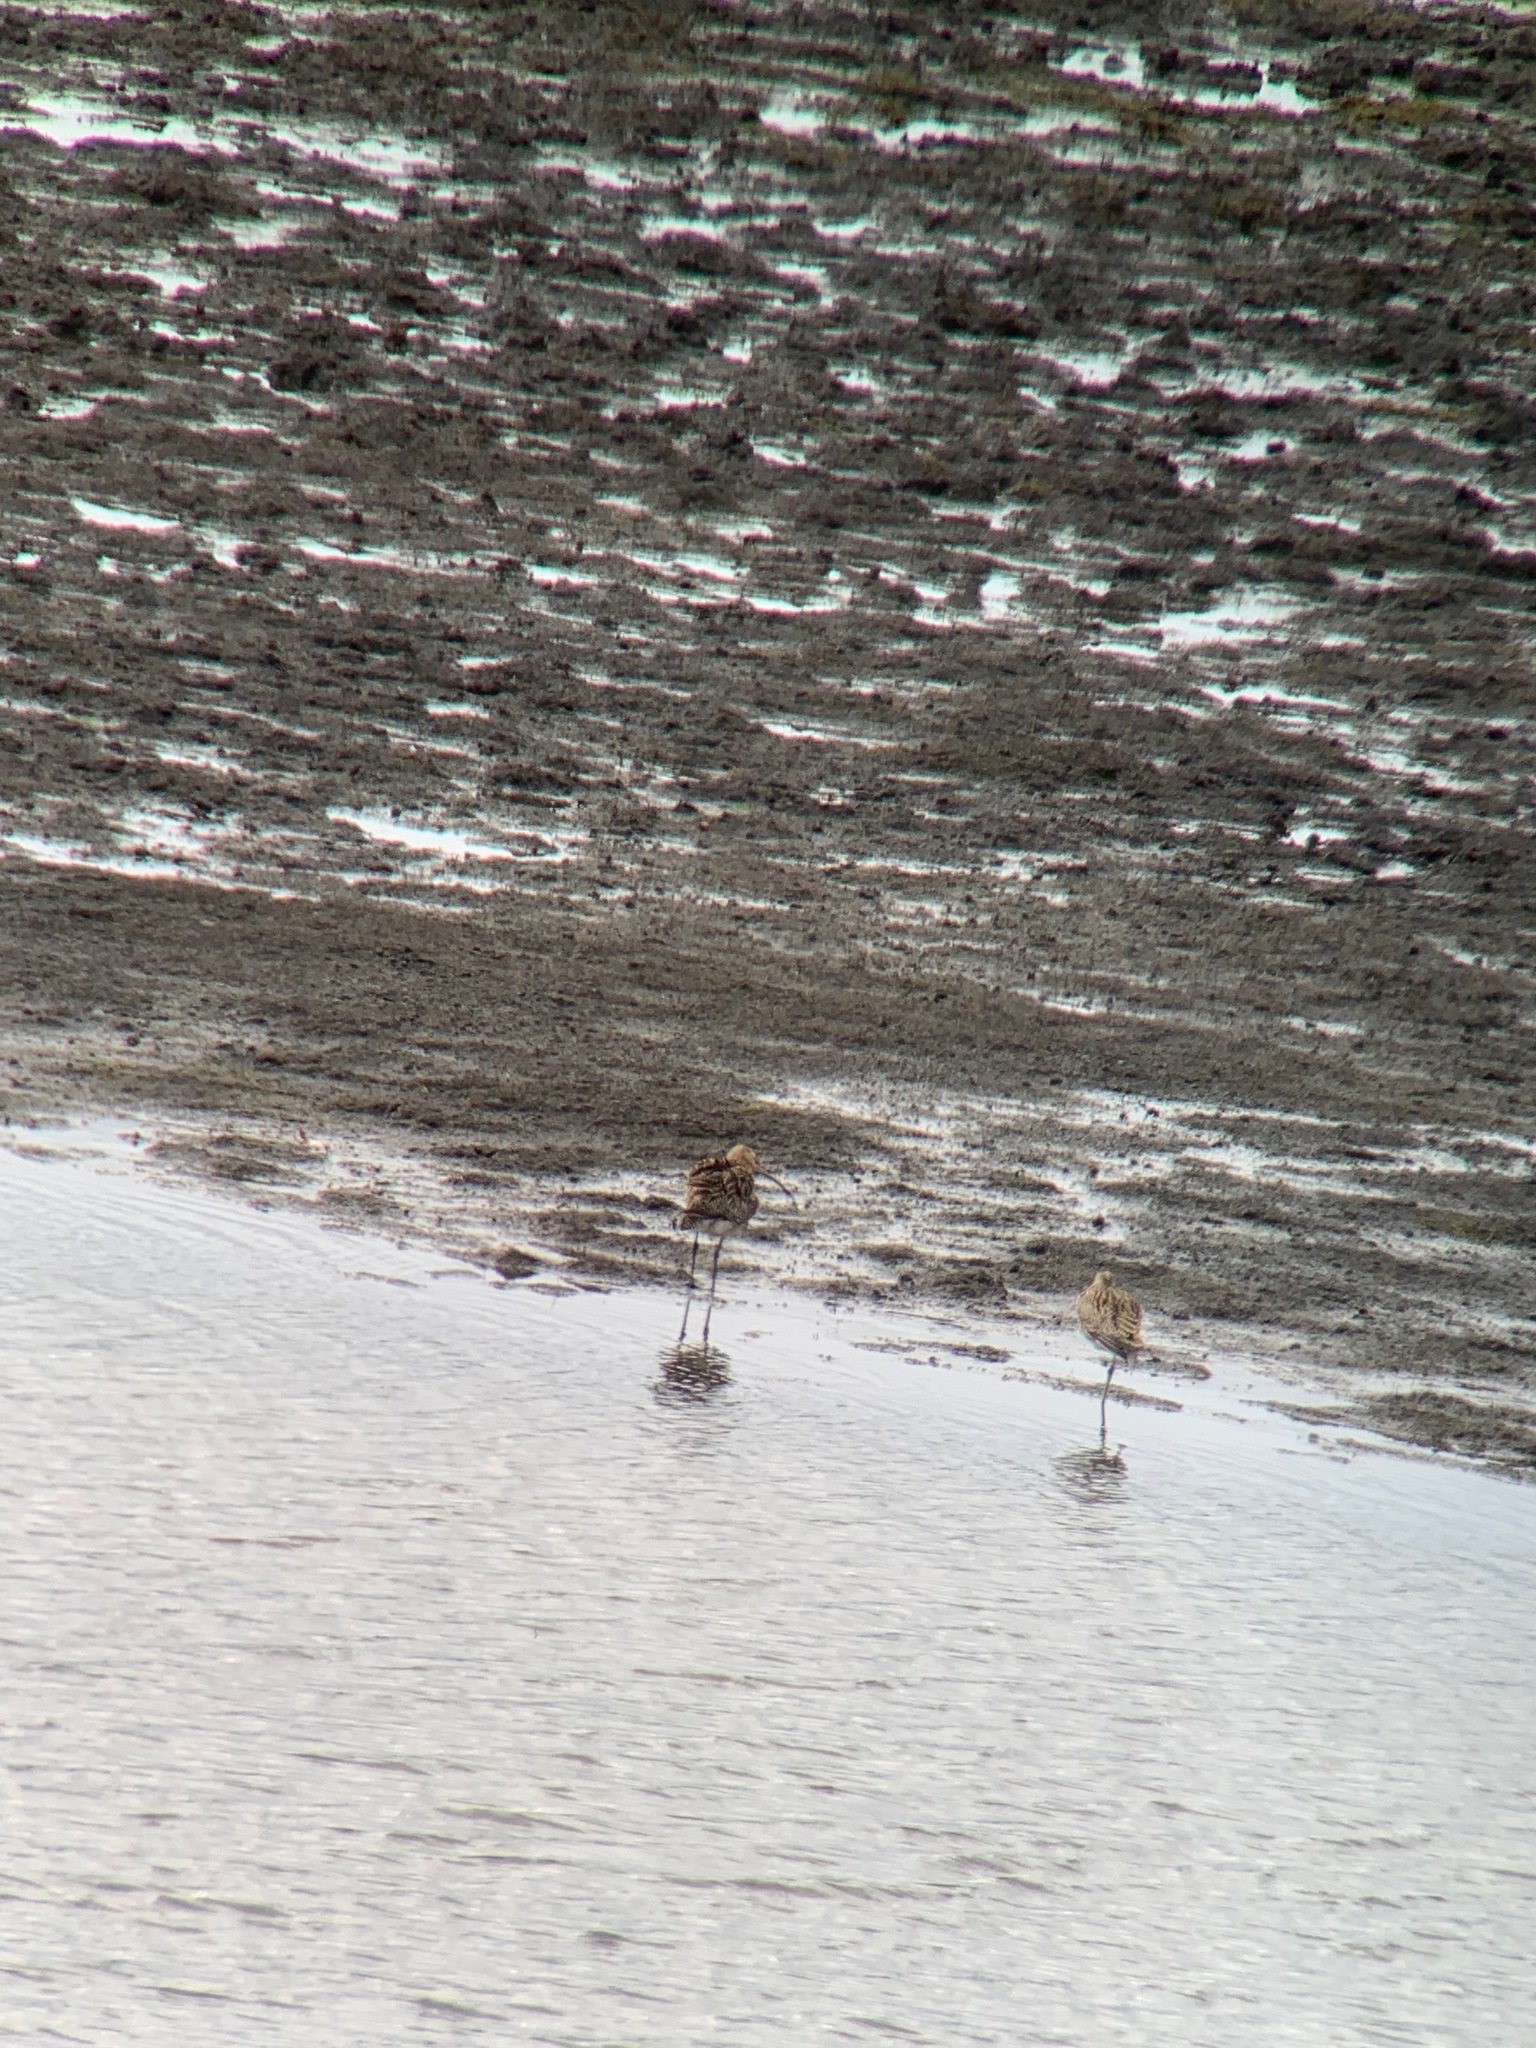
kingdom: Animalia
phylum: Chordata
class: Aves
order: Charadriiformes
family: Scolopacidae
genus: Numenius
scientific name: Numenius arquata
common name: Eurasian curlew
